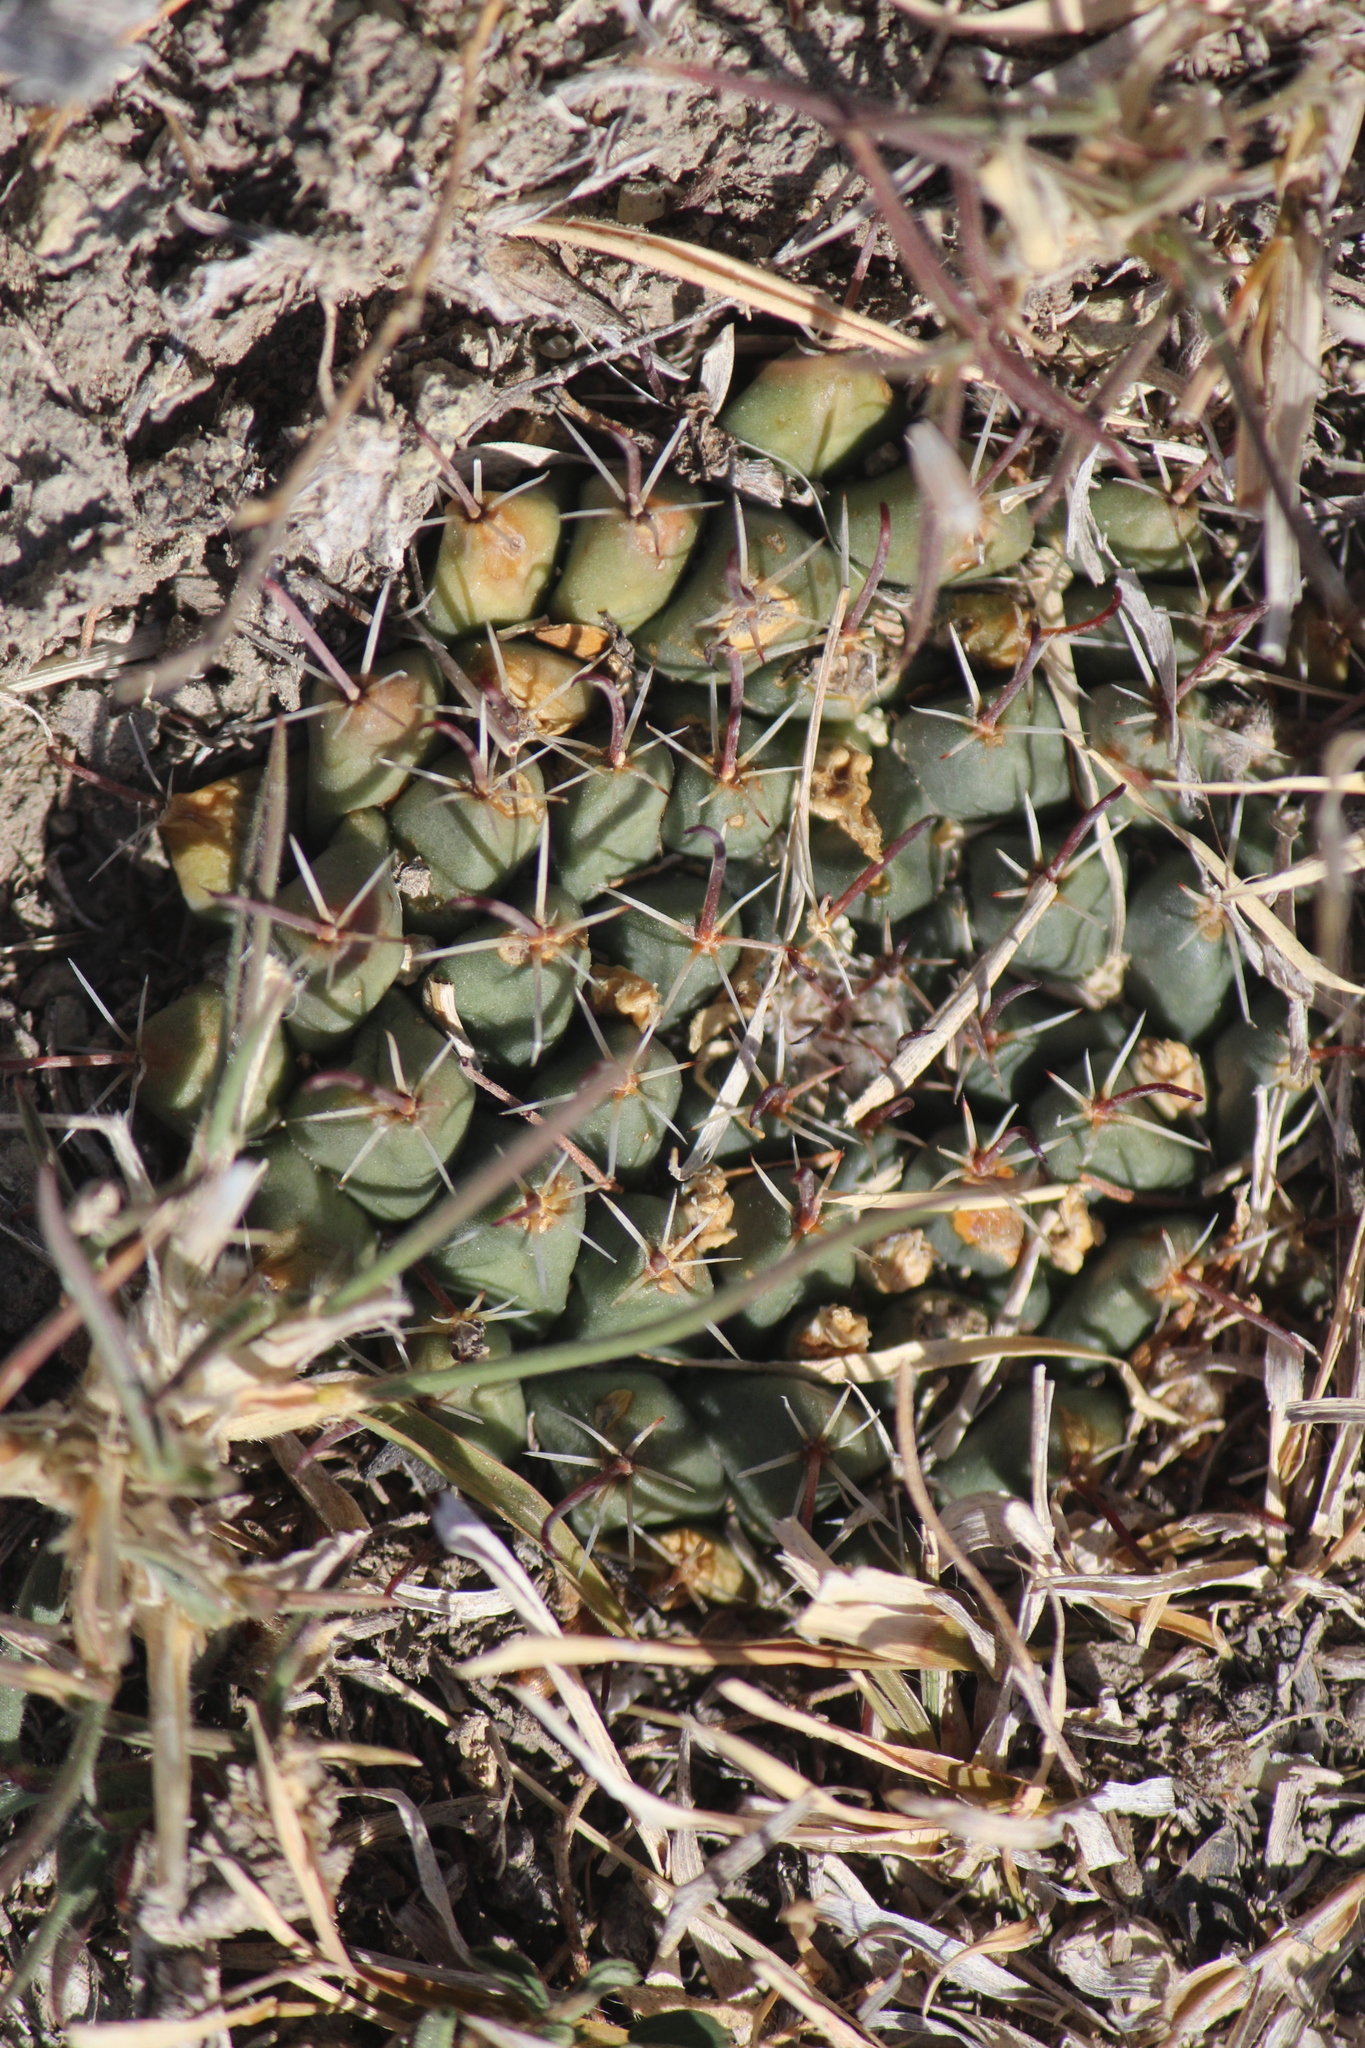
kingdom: Plantae
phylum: Tracheophyta
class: Magnoliopsida
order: Caryophyllales
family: Cactaceae
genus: Mammillaria
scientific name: Mammillaria uncinata
